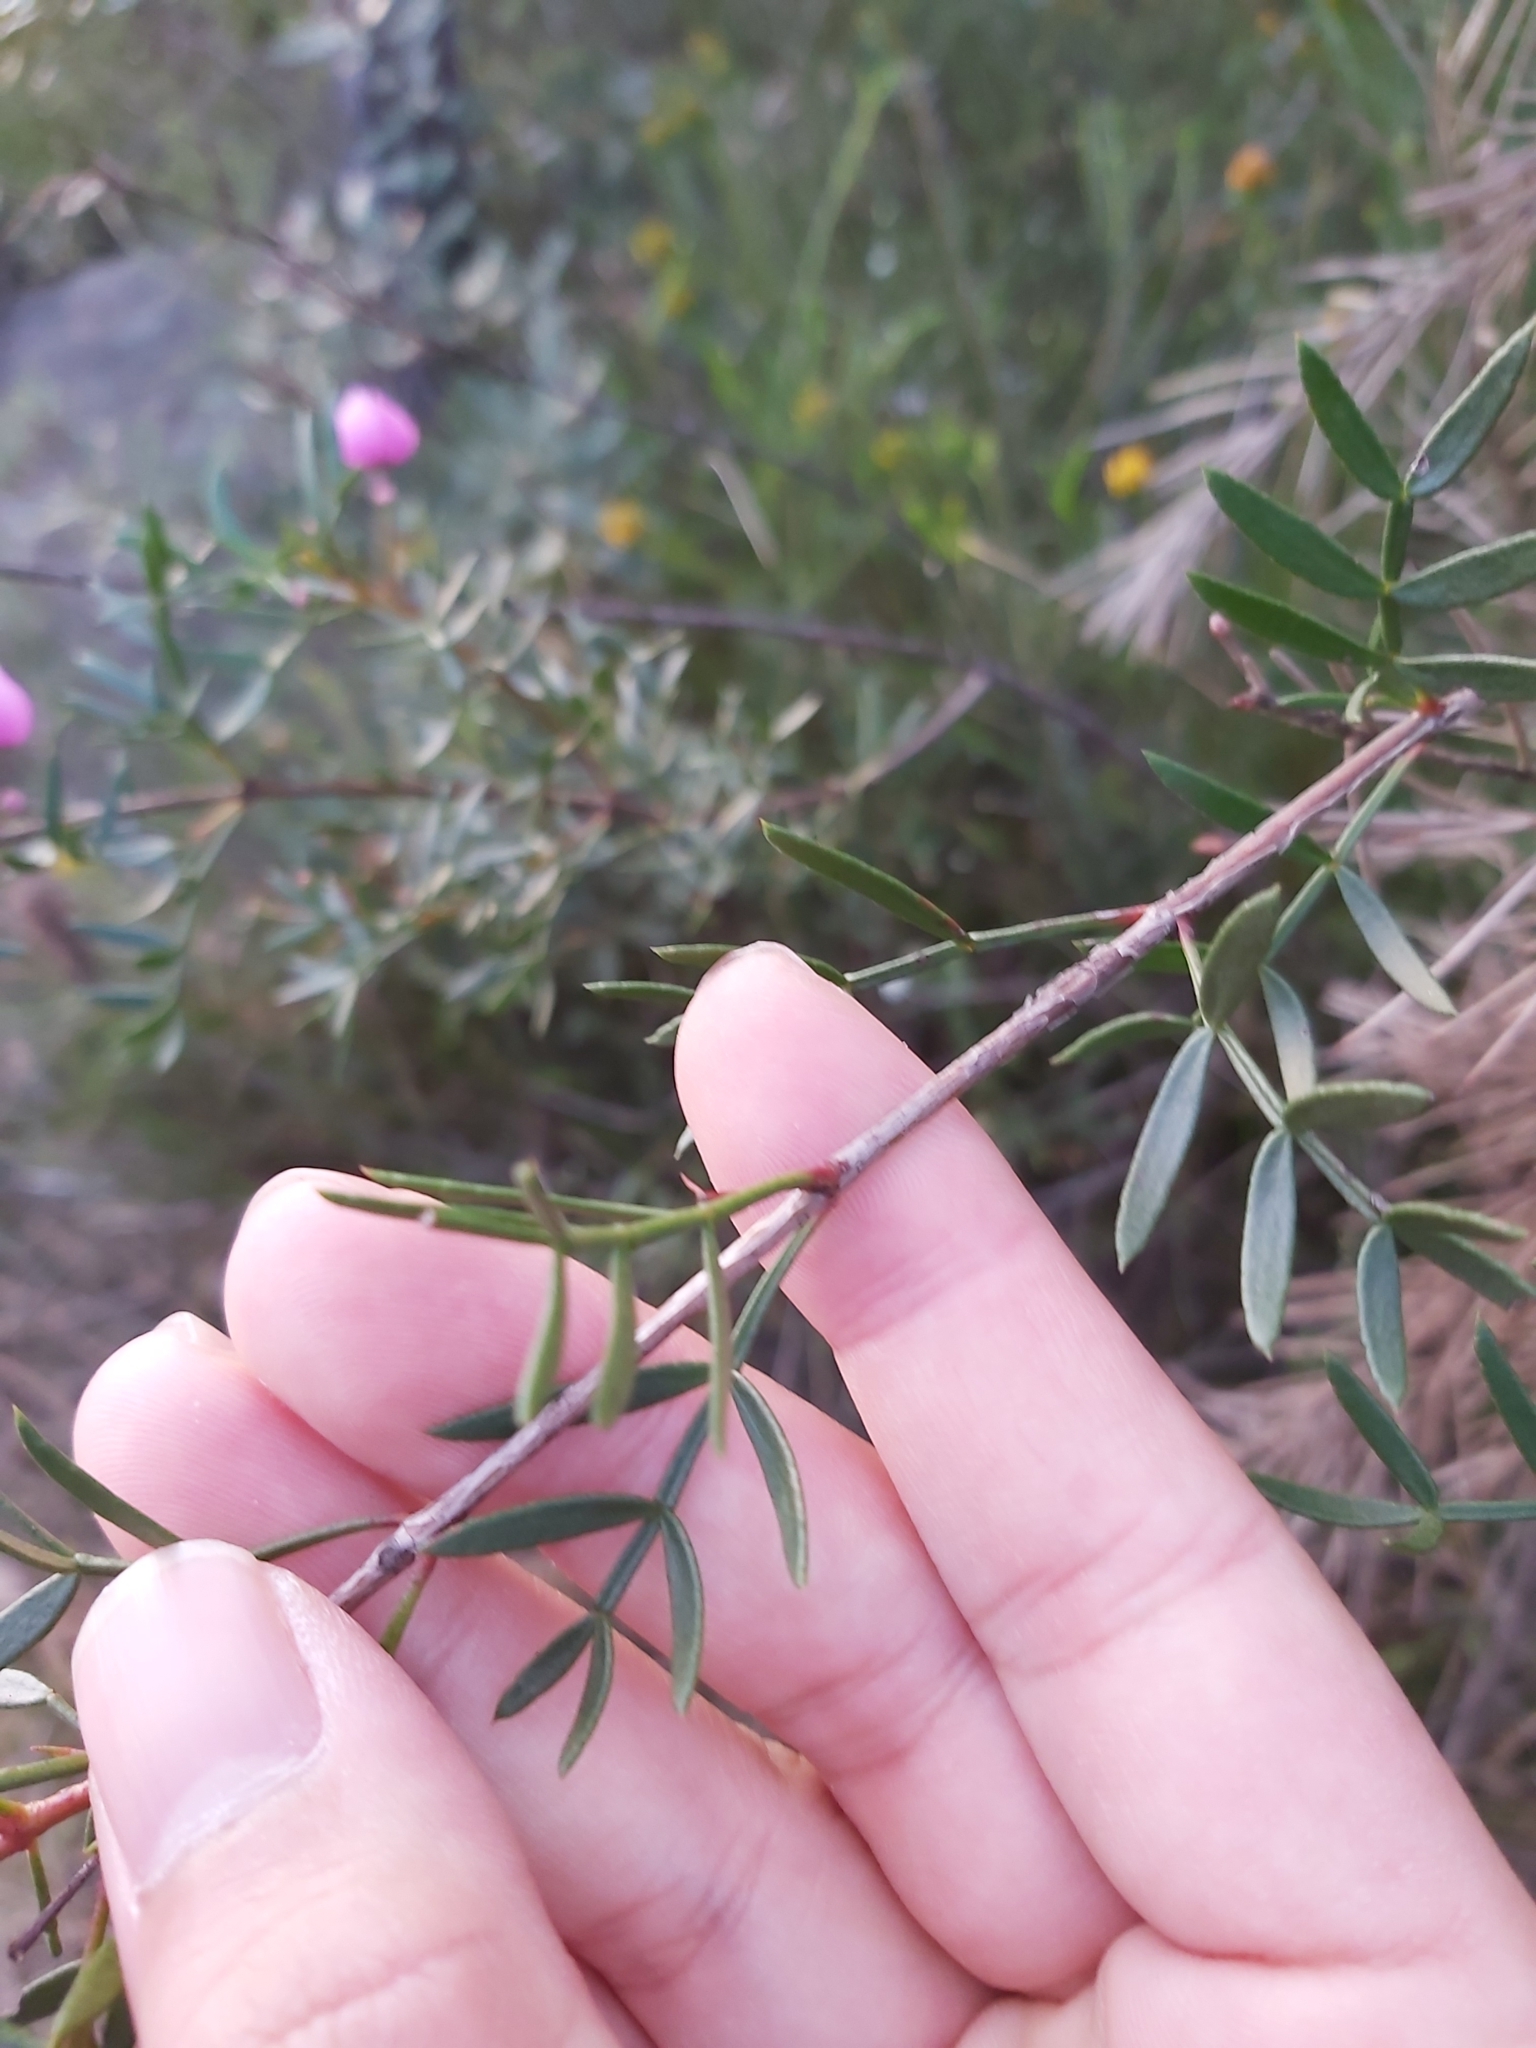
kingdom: Plantae
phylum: Tracheophyta
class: Magnoliopsida
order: Sapindales
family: Rutaceae
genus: Boronia
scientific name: Boronia pinnata
